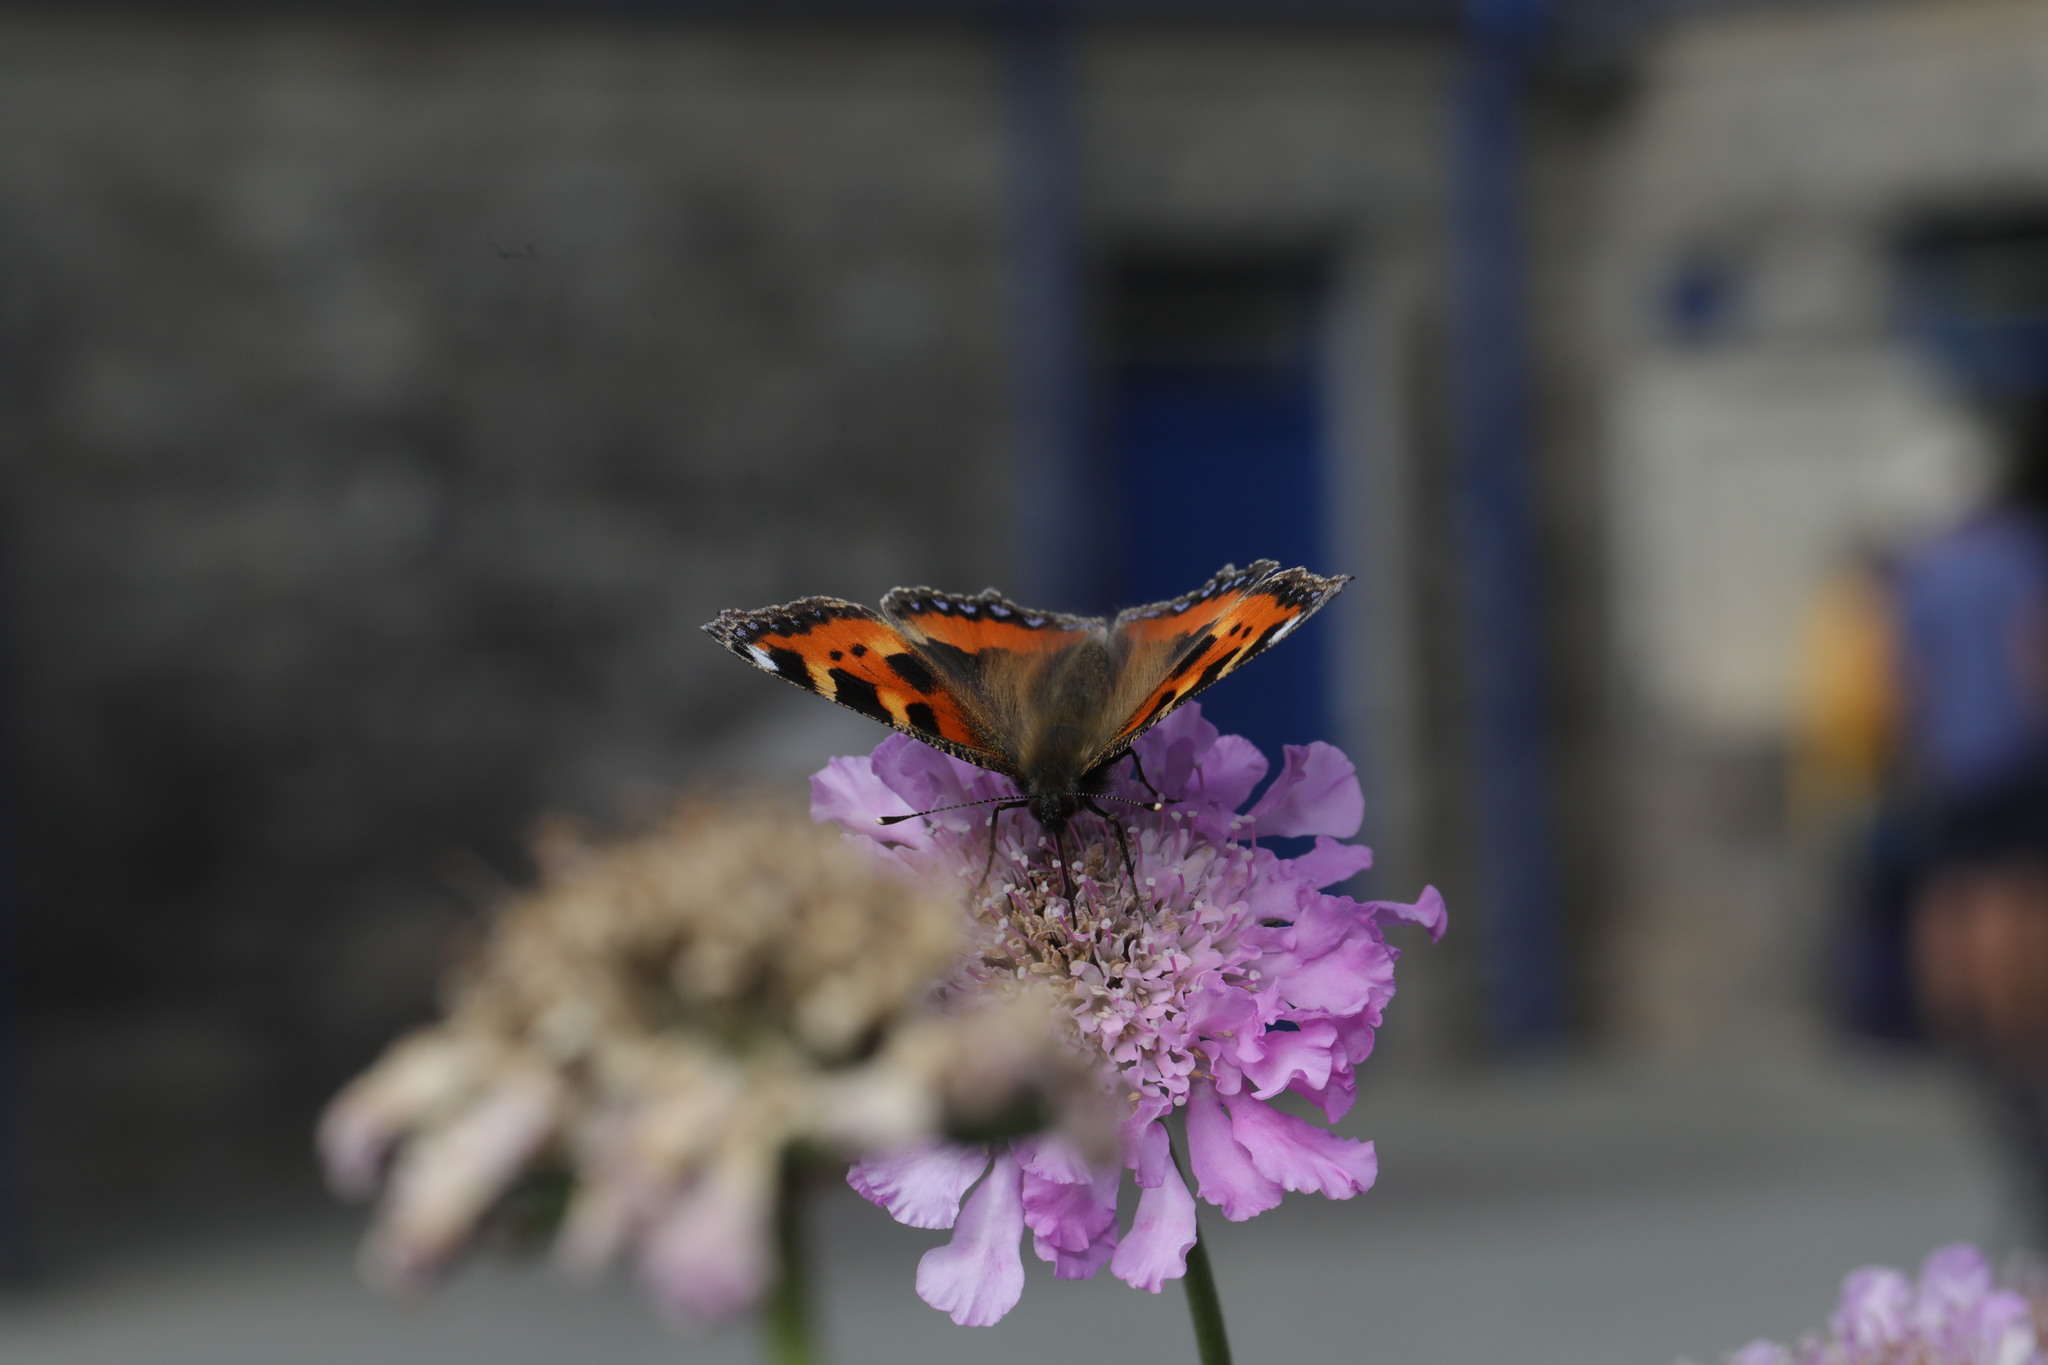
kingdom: Animalia
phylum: Arthropoda
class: Insecta
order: Lepidoptera
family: Nymphalidae
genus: Aglais
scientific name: Aglais urticae
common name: Small tortoiseshell
